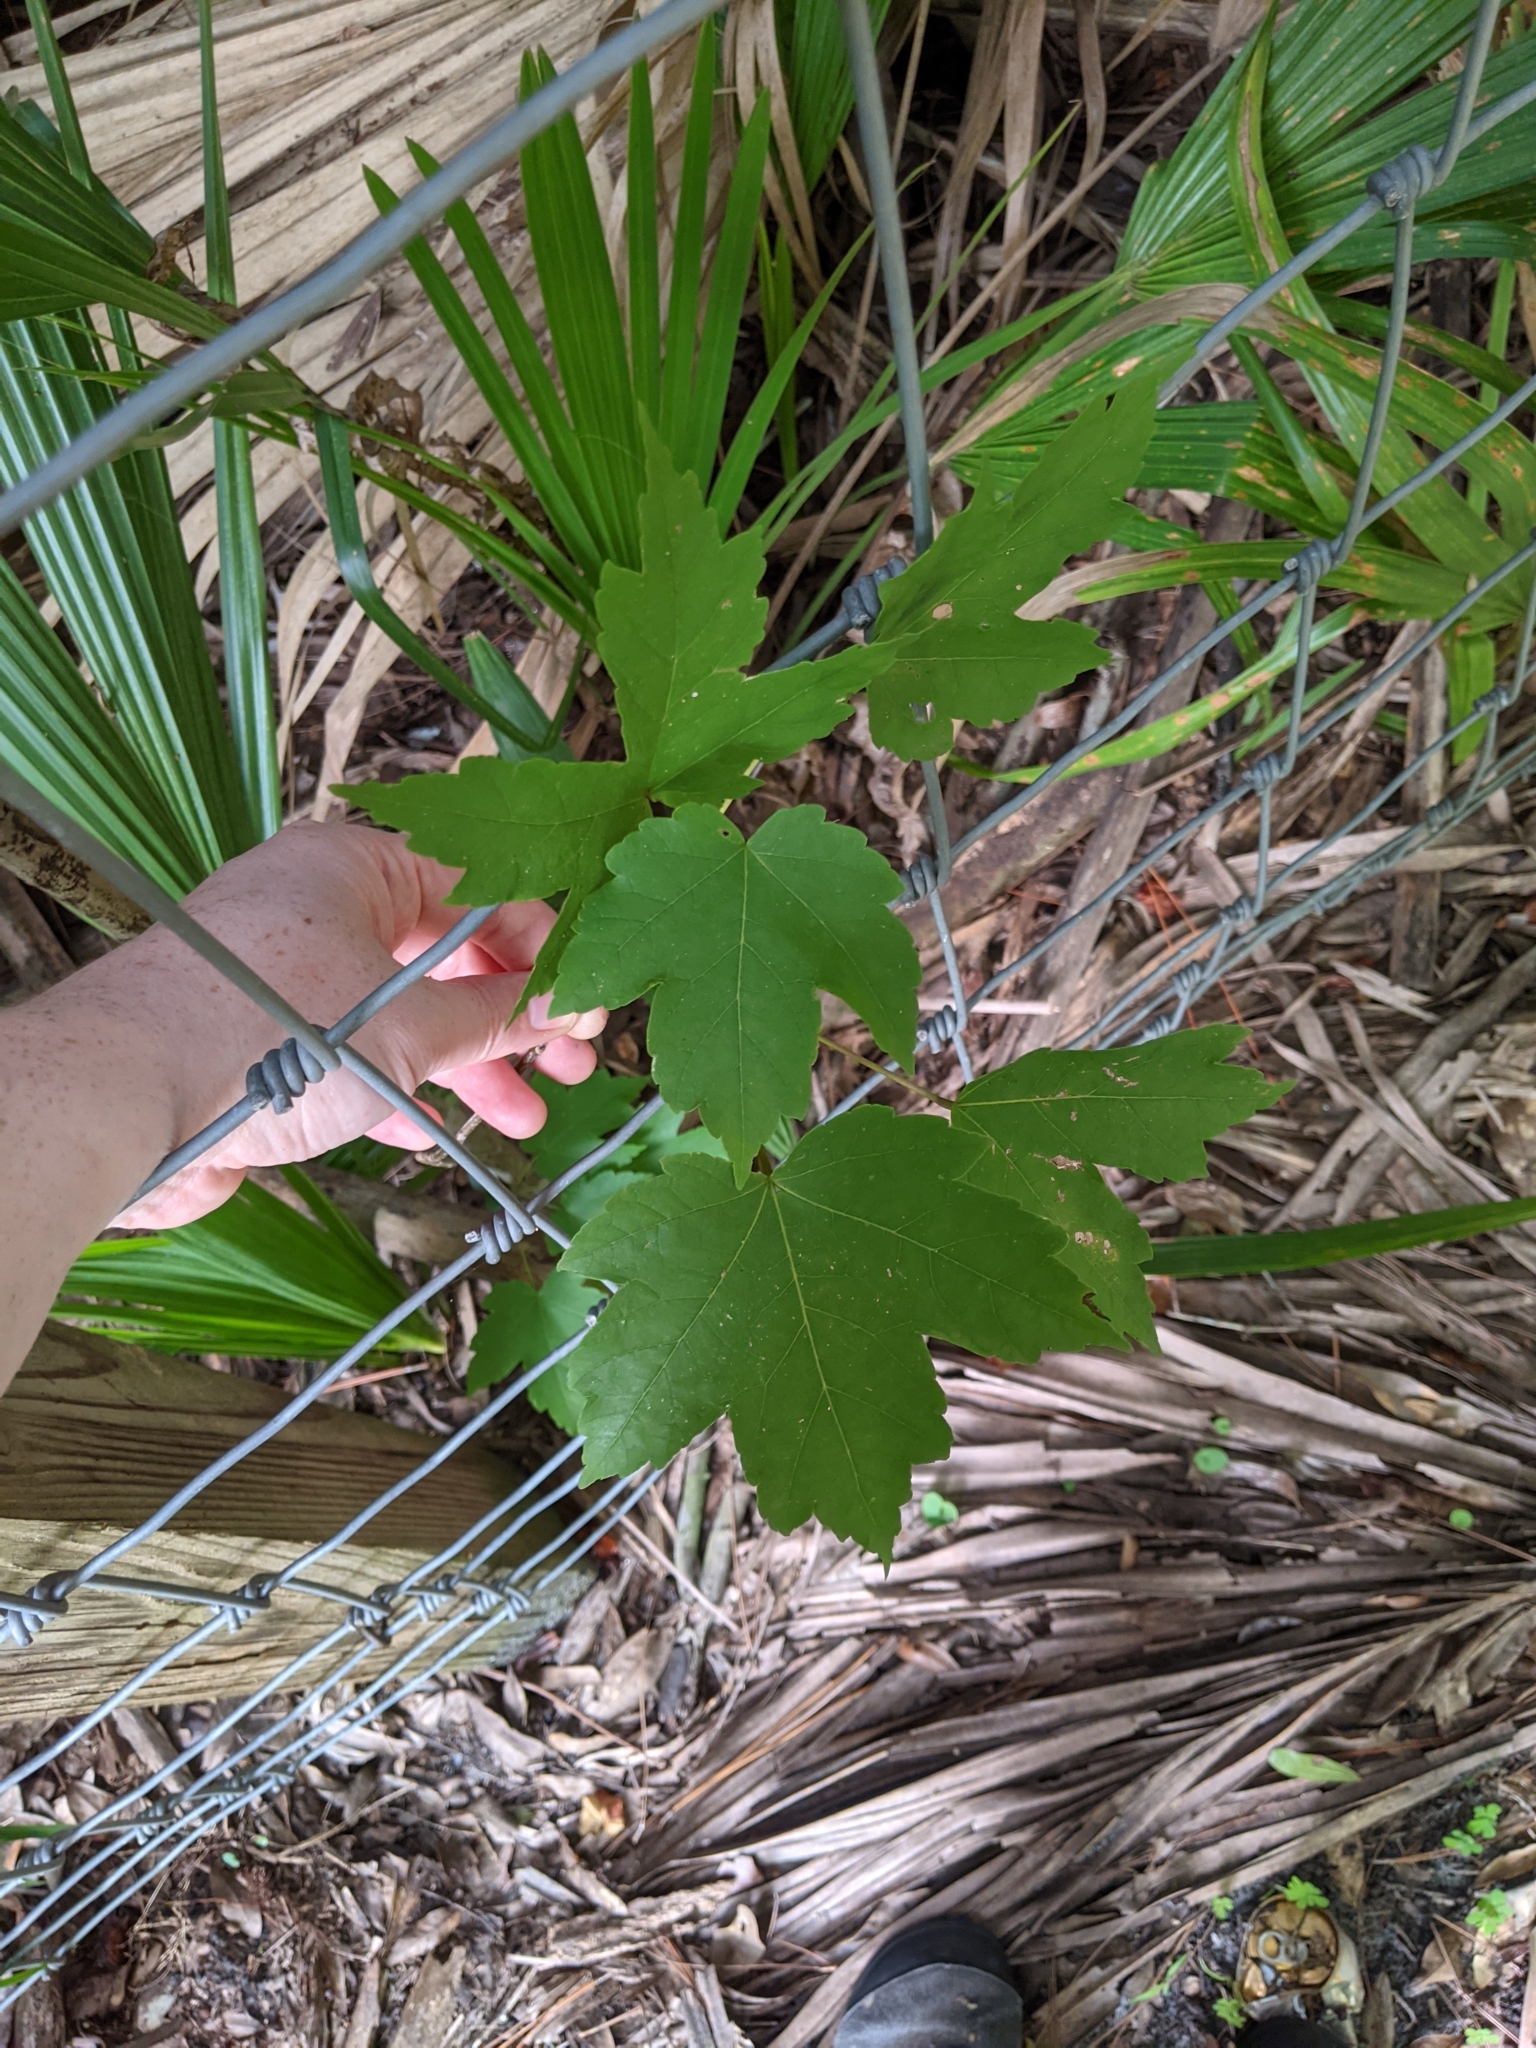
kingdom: Plantae
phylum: Tracheophyta
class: Magnoliopsida
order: Sapindales
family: Sapindaceae
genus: Acer
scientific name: Acer rubrum
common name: Red maple
